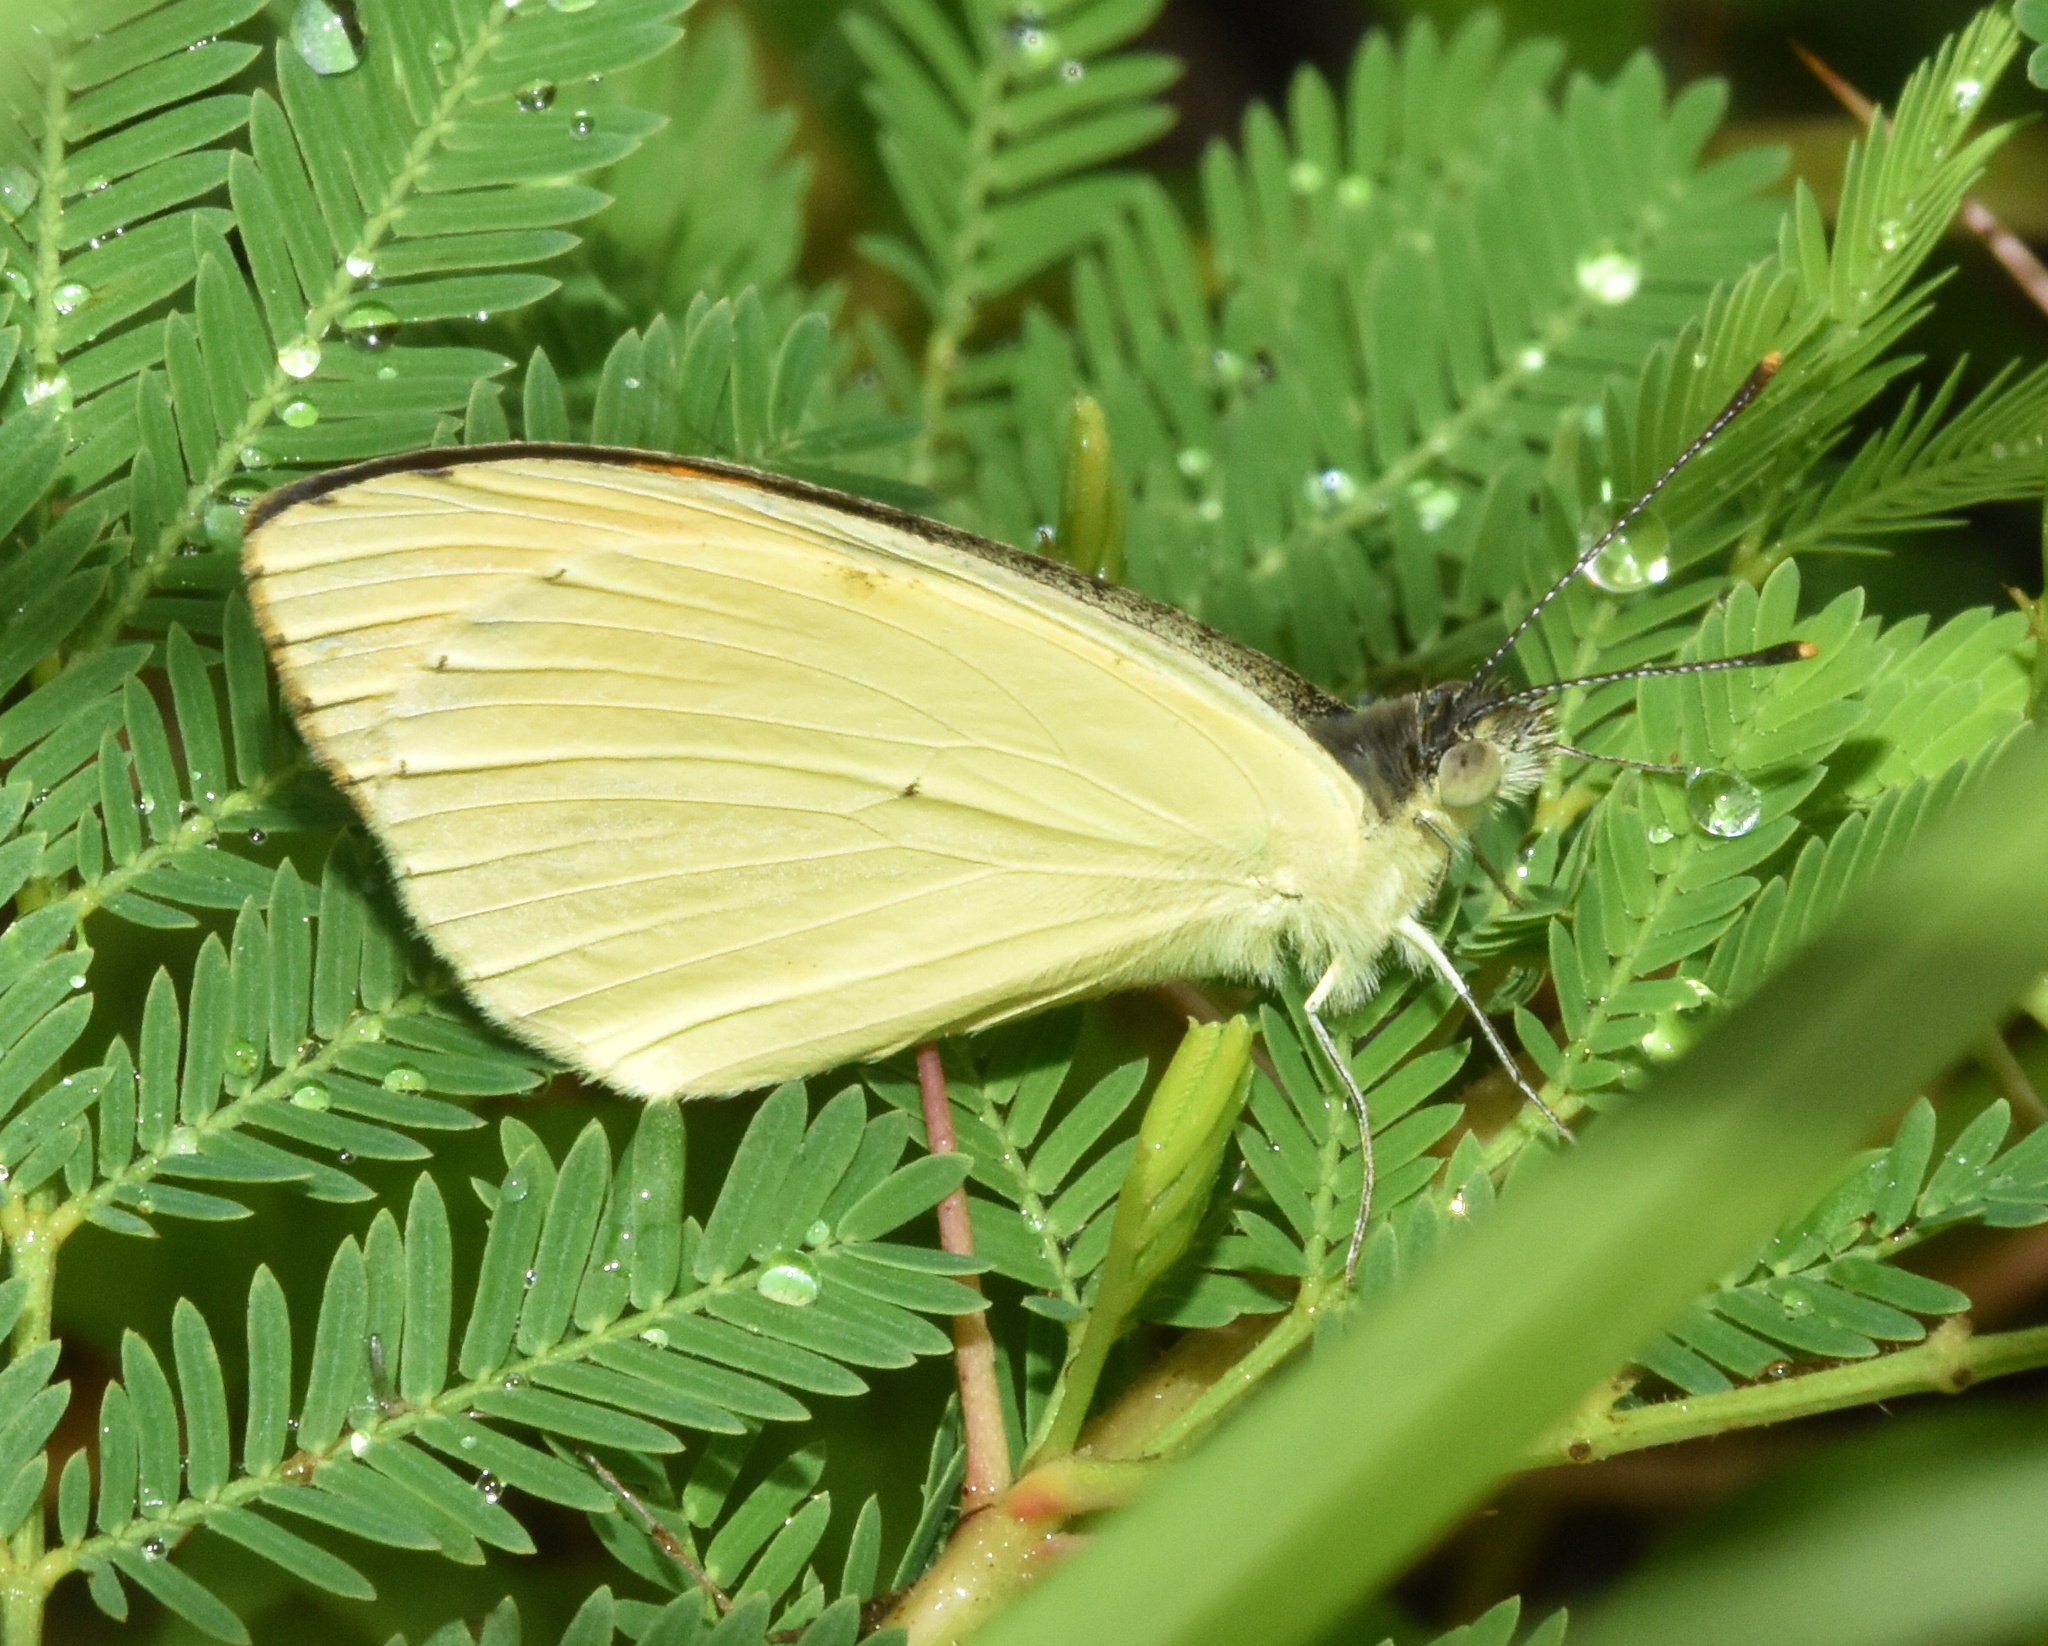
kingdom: Animalia
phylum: Arthropoda
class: Insecta
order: Lepidoptera
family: Pieridae
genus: Colotis
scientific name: Colotis auxo
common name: Sulphur orange tip
